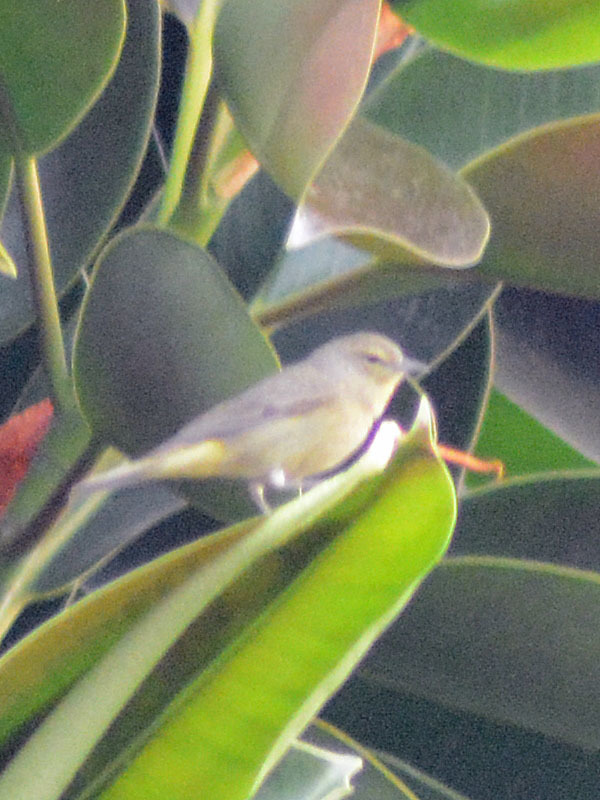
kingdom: Animalia
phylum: Chordata
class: Aves
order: Passeriformes
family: Parulidae
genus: Leiothlypis
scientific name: Leiothlypis celata
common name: Orange-crowned warbler
